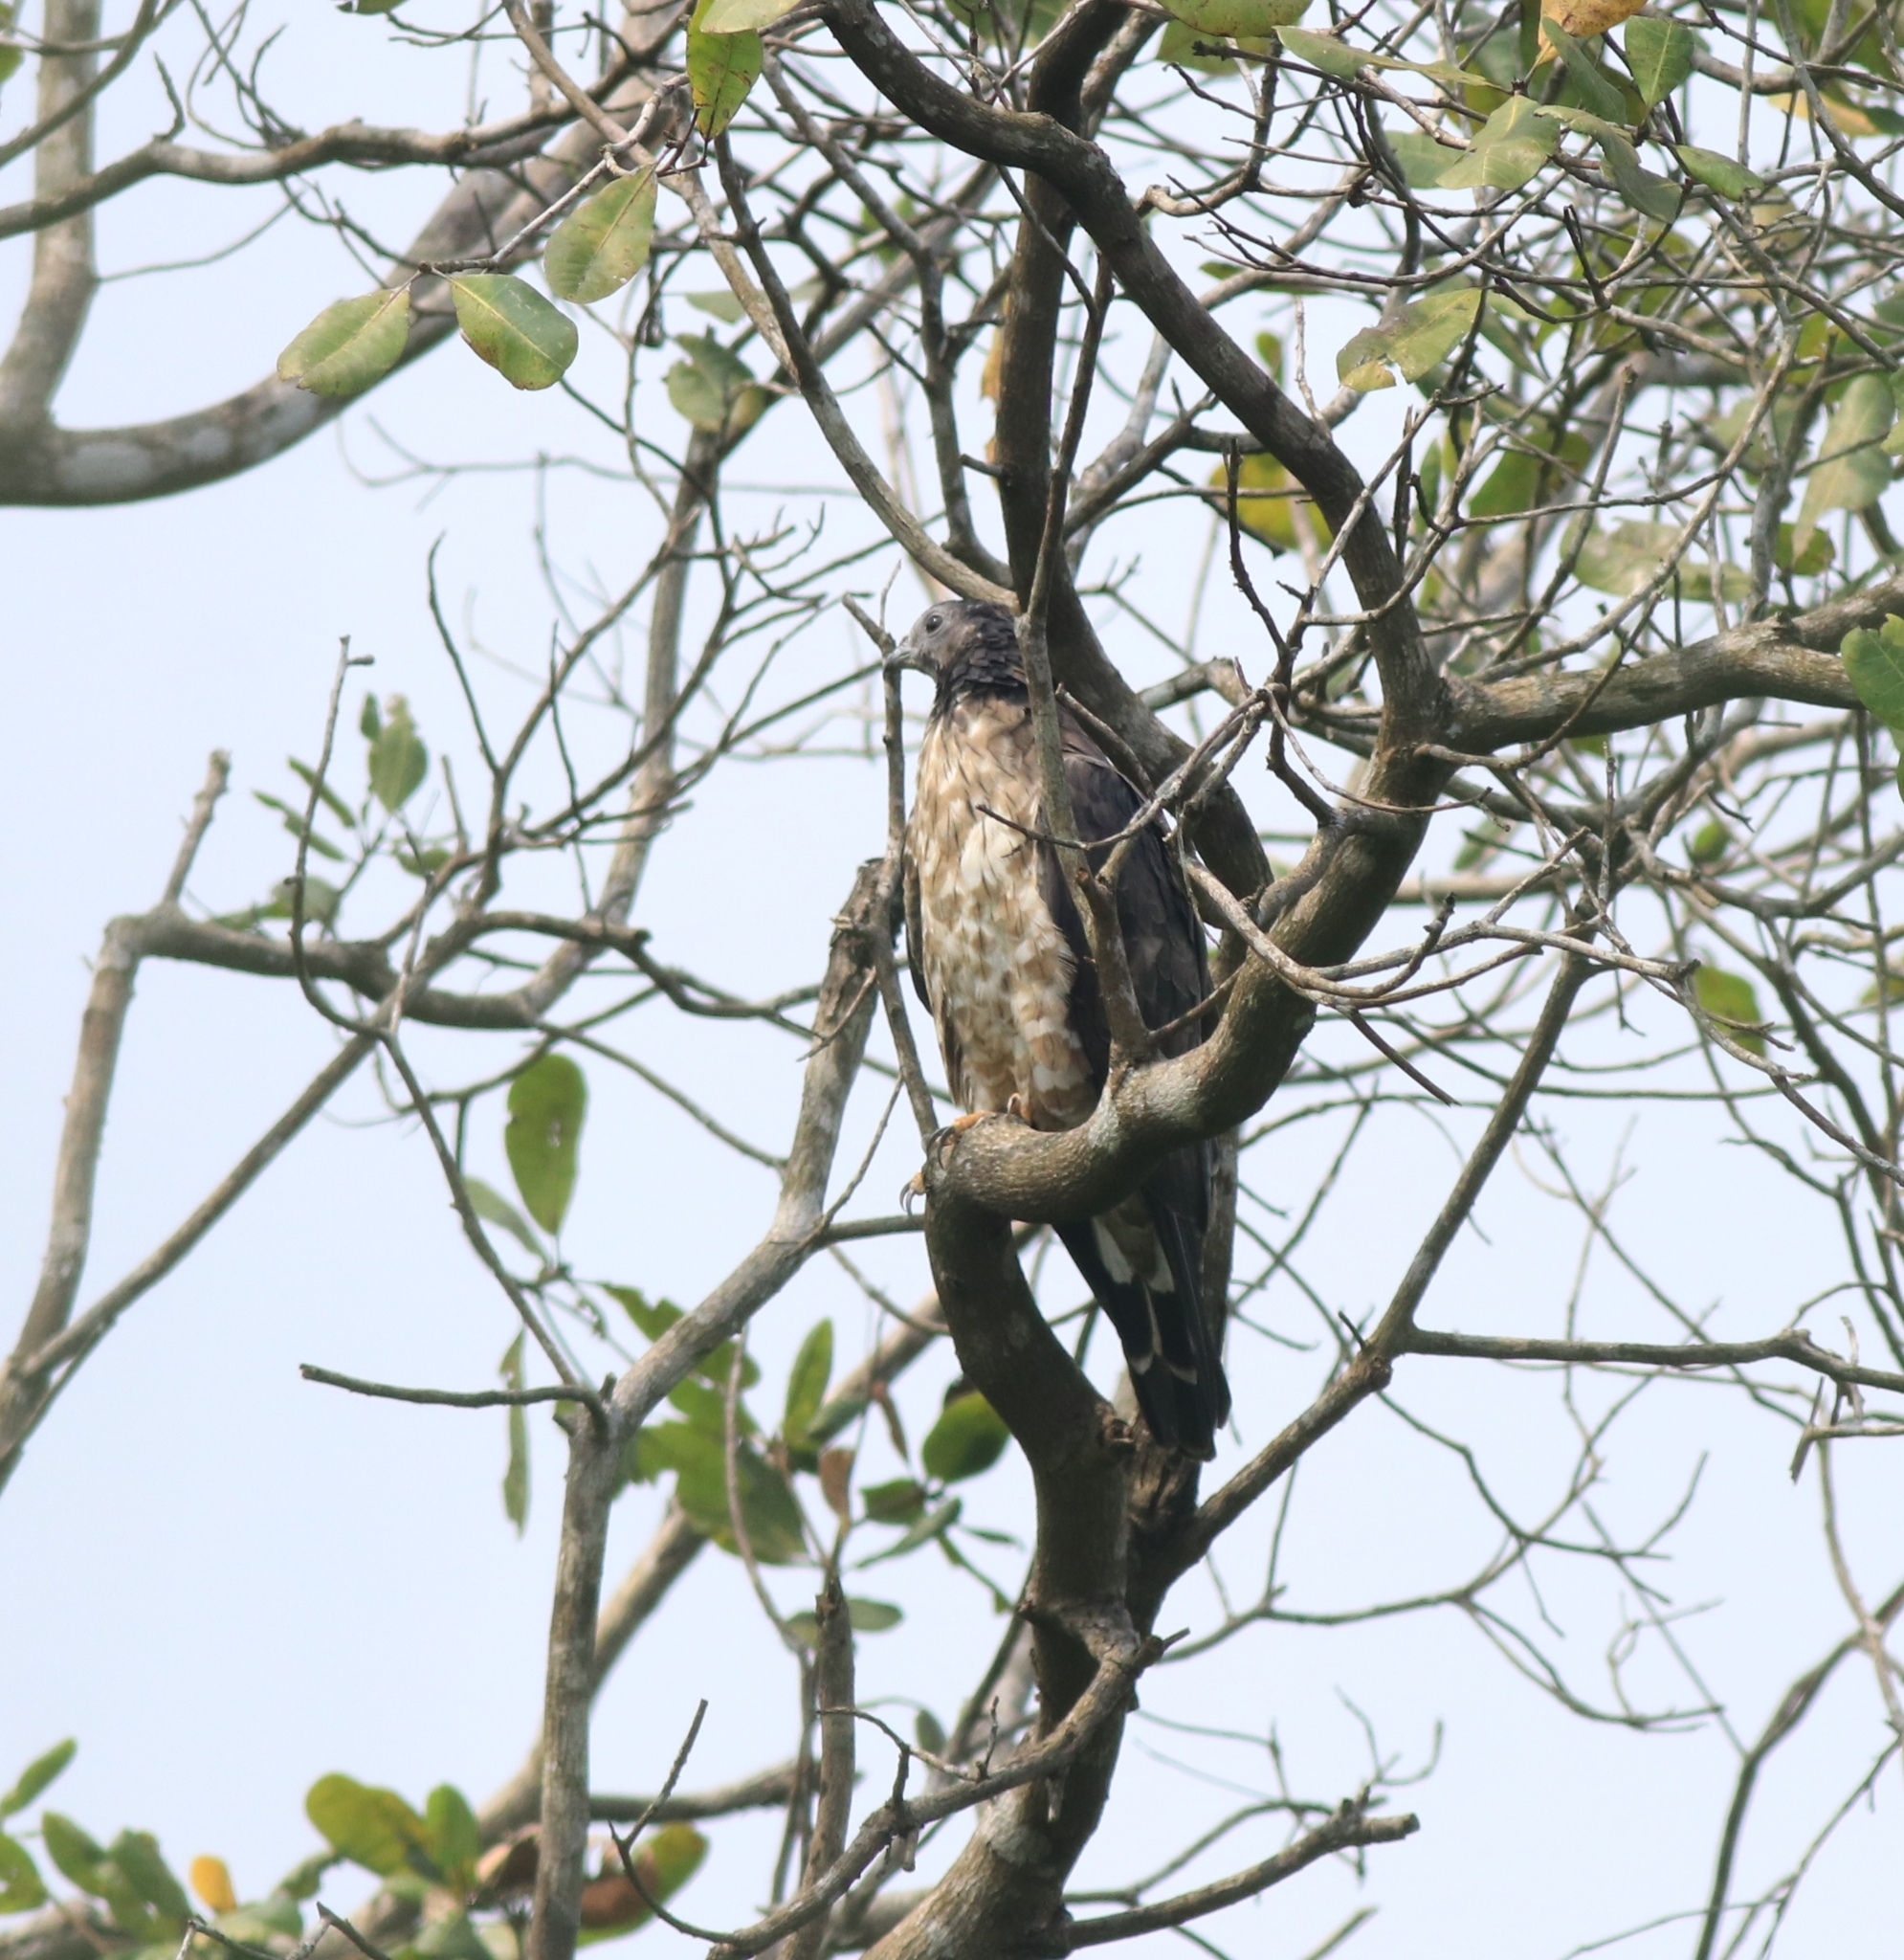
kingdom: Animalia
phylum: Chordata
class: Aves
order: Accipitriformes
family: Accipitridae
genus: Pernis
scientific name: Pernis ptilorhynchus
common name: Crested honey buzzard
